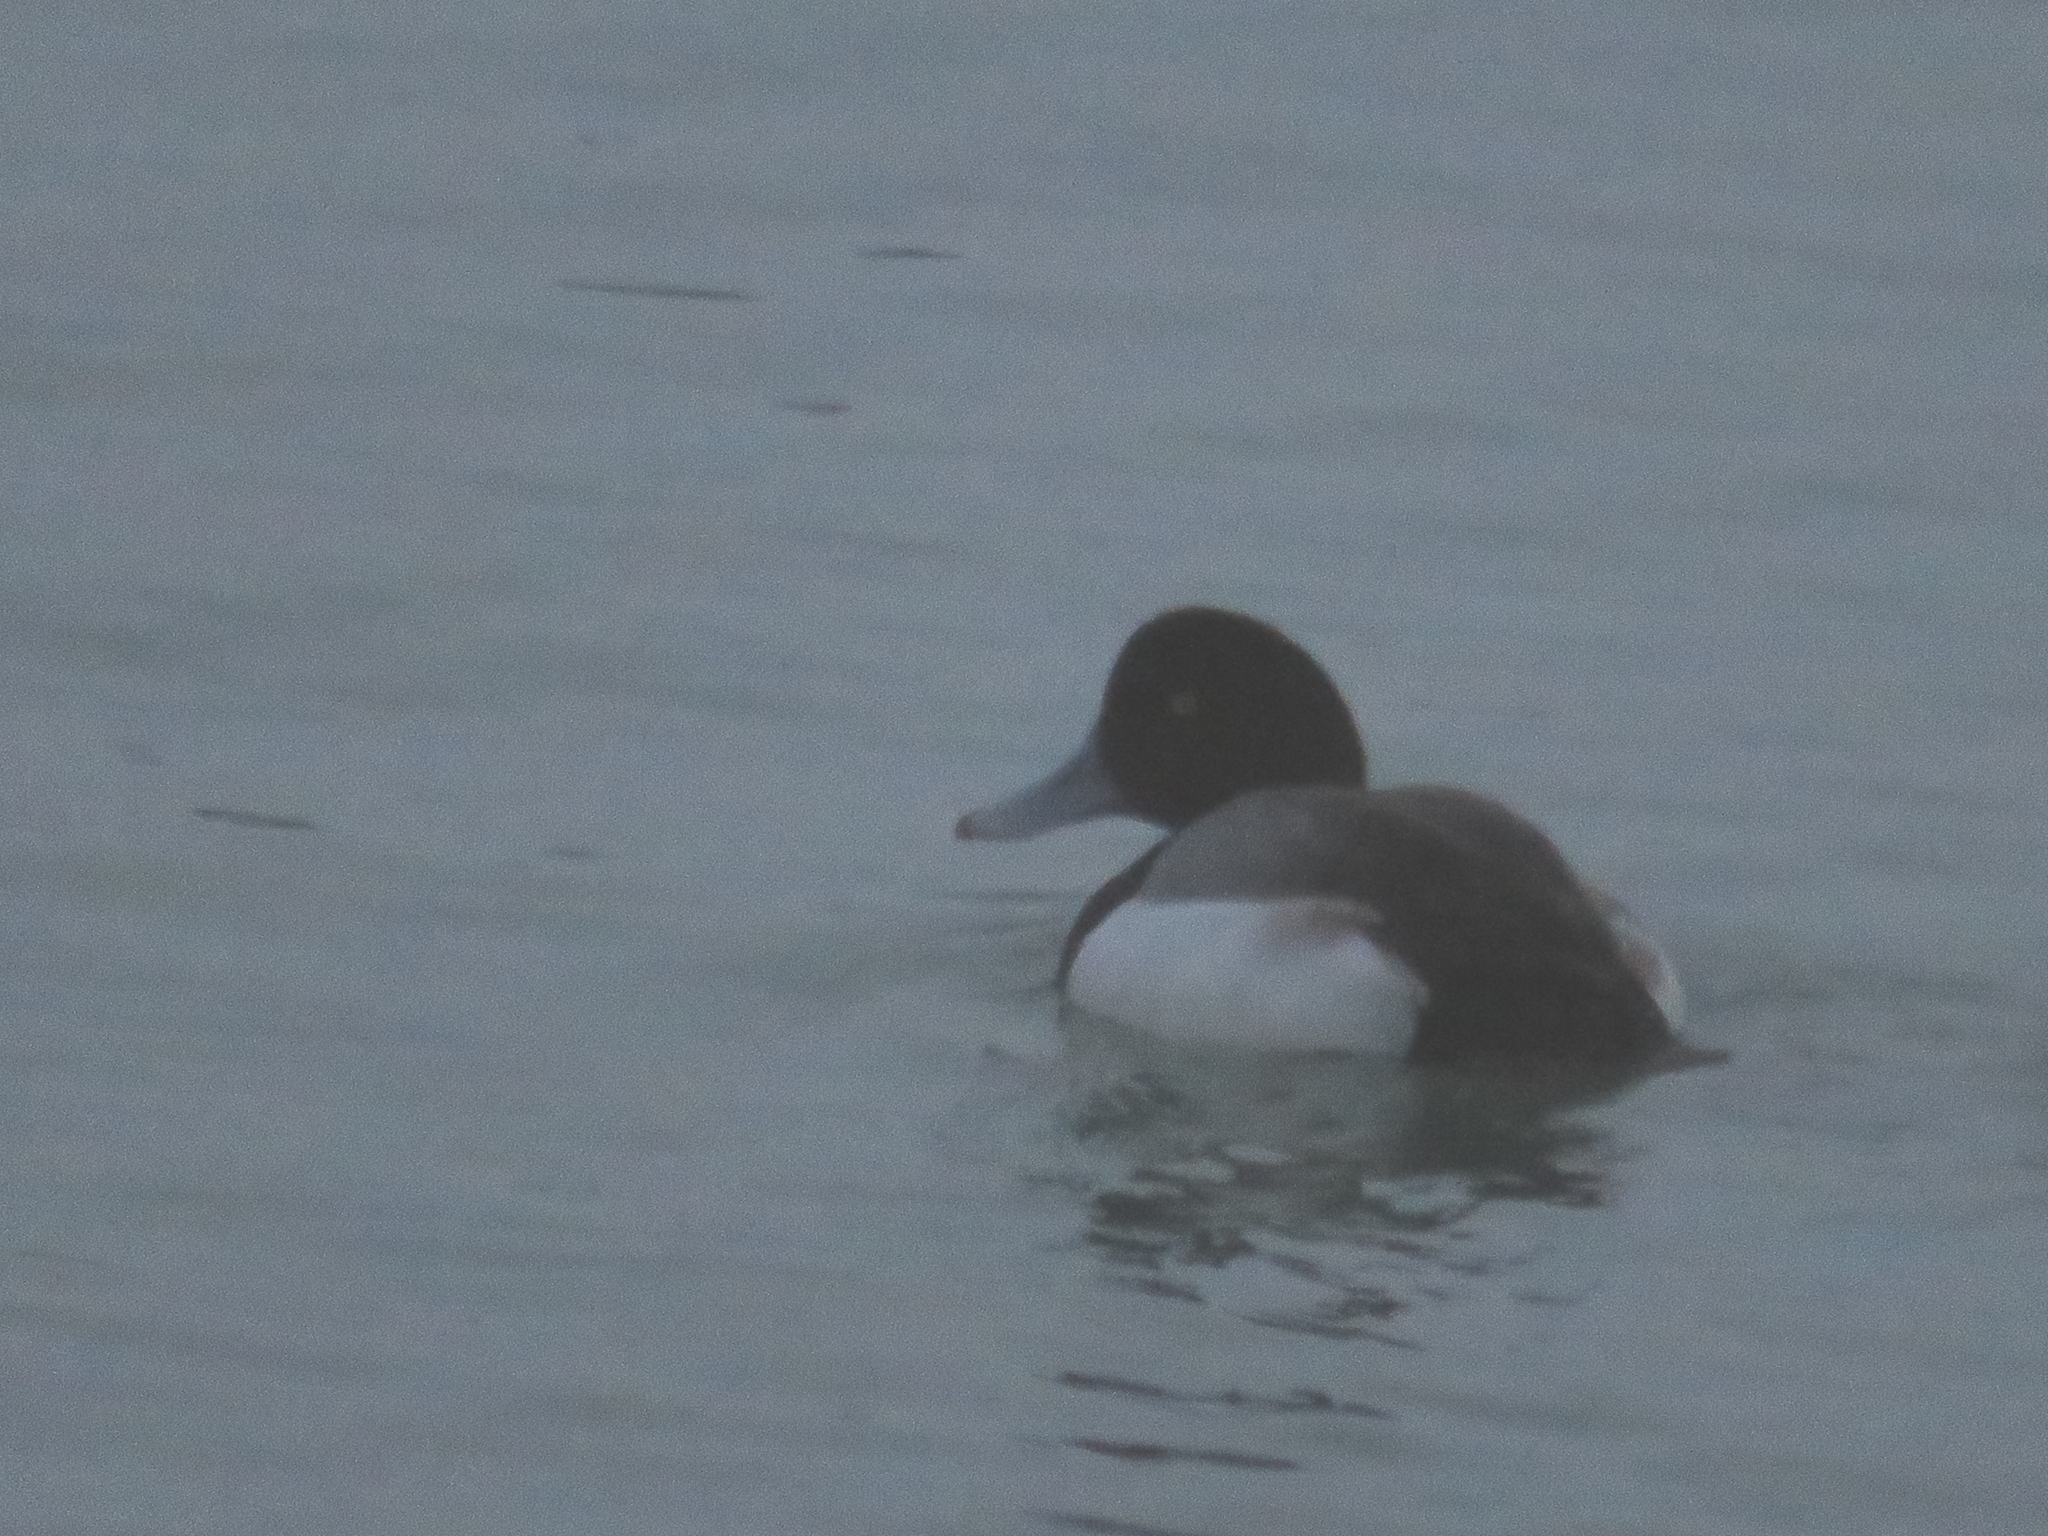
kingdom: Animalia
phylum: Chordata
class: Aves
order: Anseriformes
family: Anatidae
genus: Aythya
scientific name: Aythya marila
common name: Greater scaup
